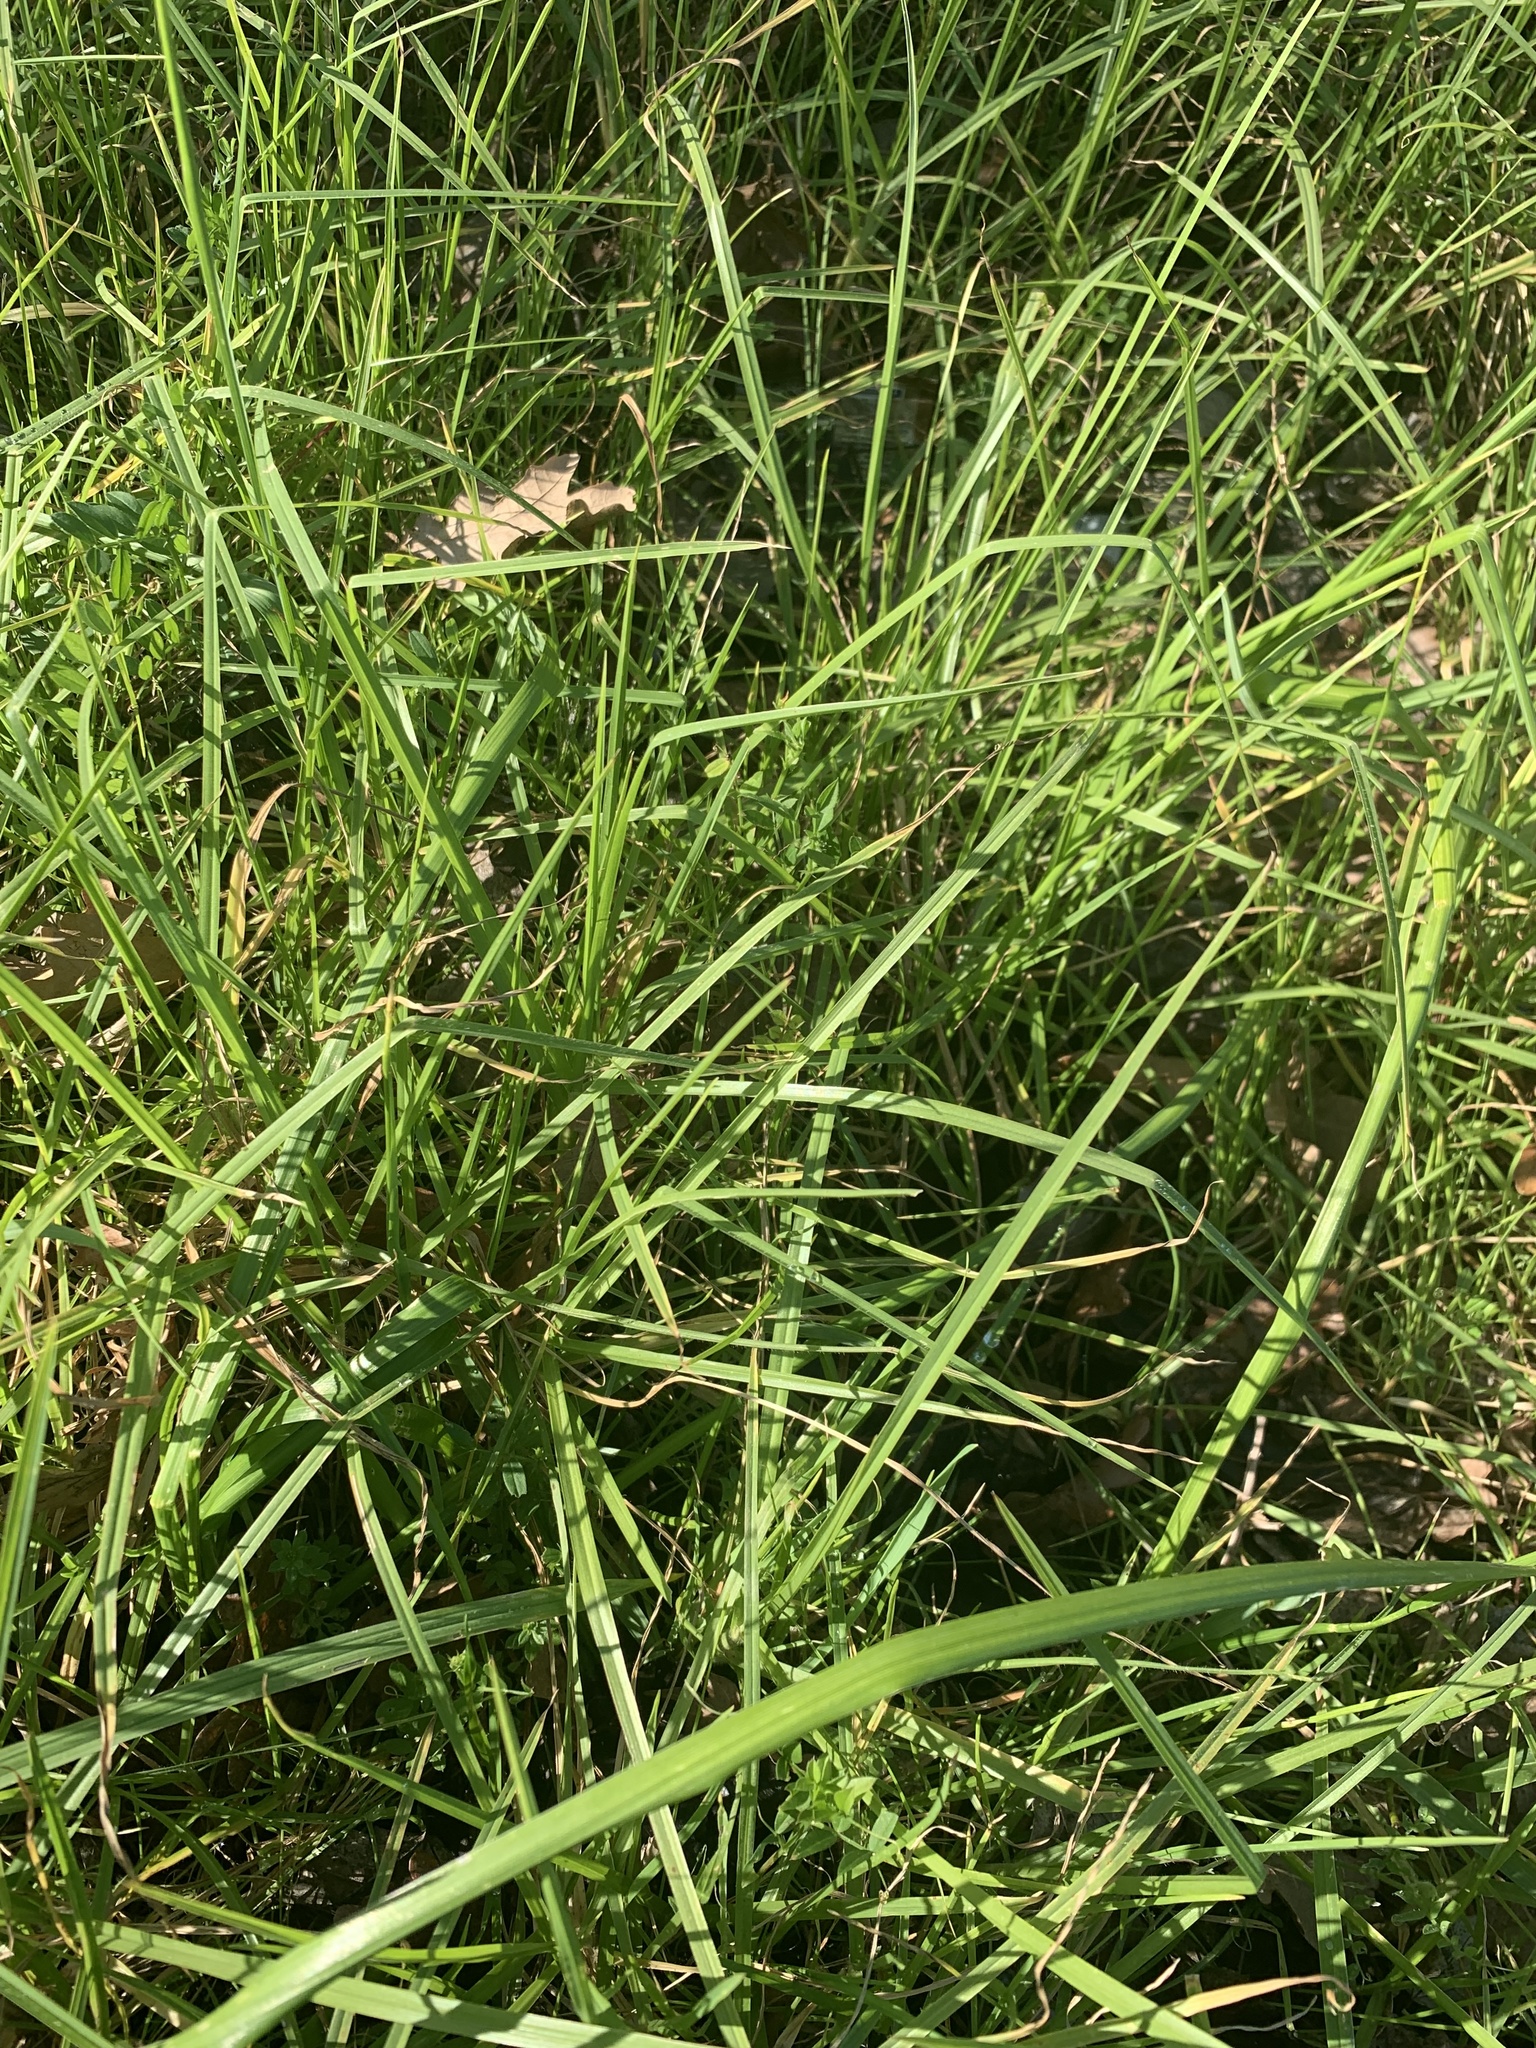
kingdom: Plantae
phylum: Tracheophyta
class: Liliopsida
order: Poales
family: Poaceae
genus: Cenchrus
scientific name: Cenchrus clandestinus
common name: Kikuyugrass
